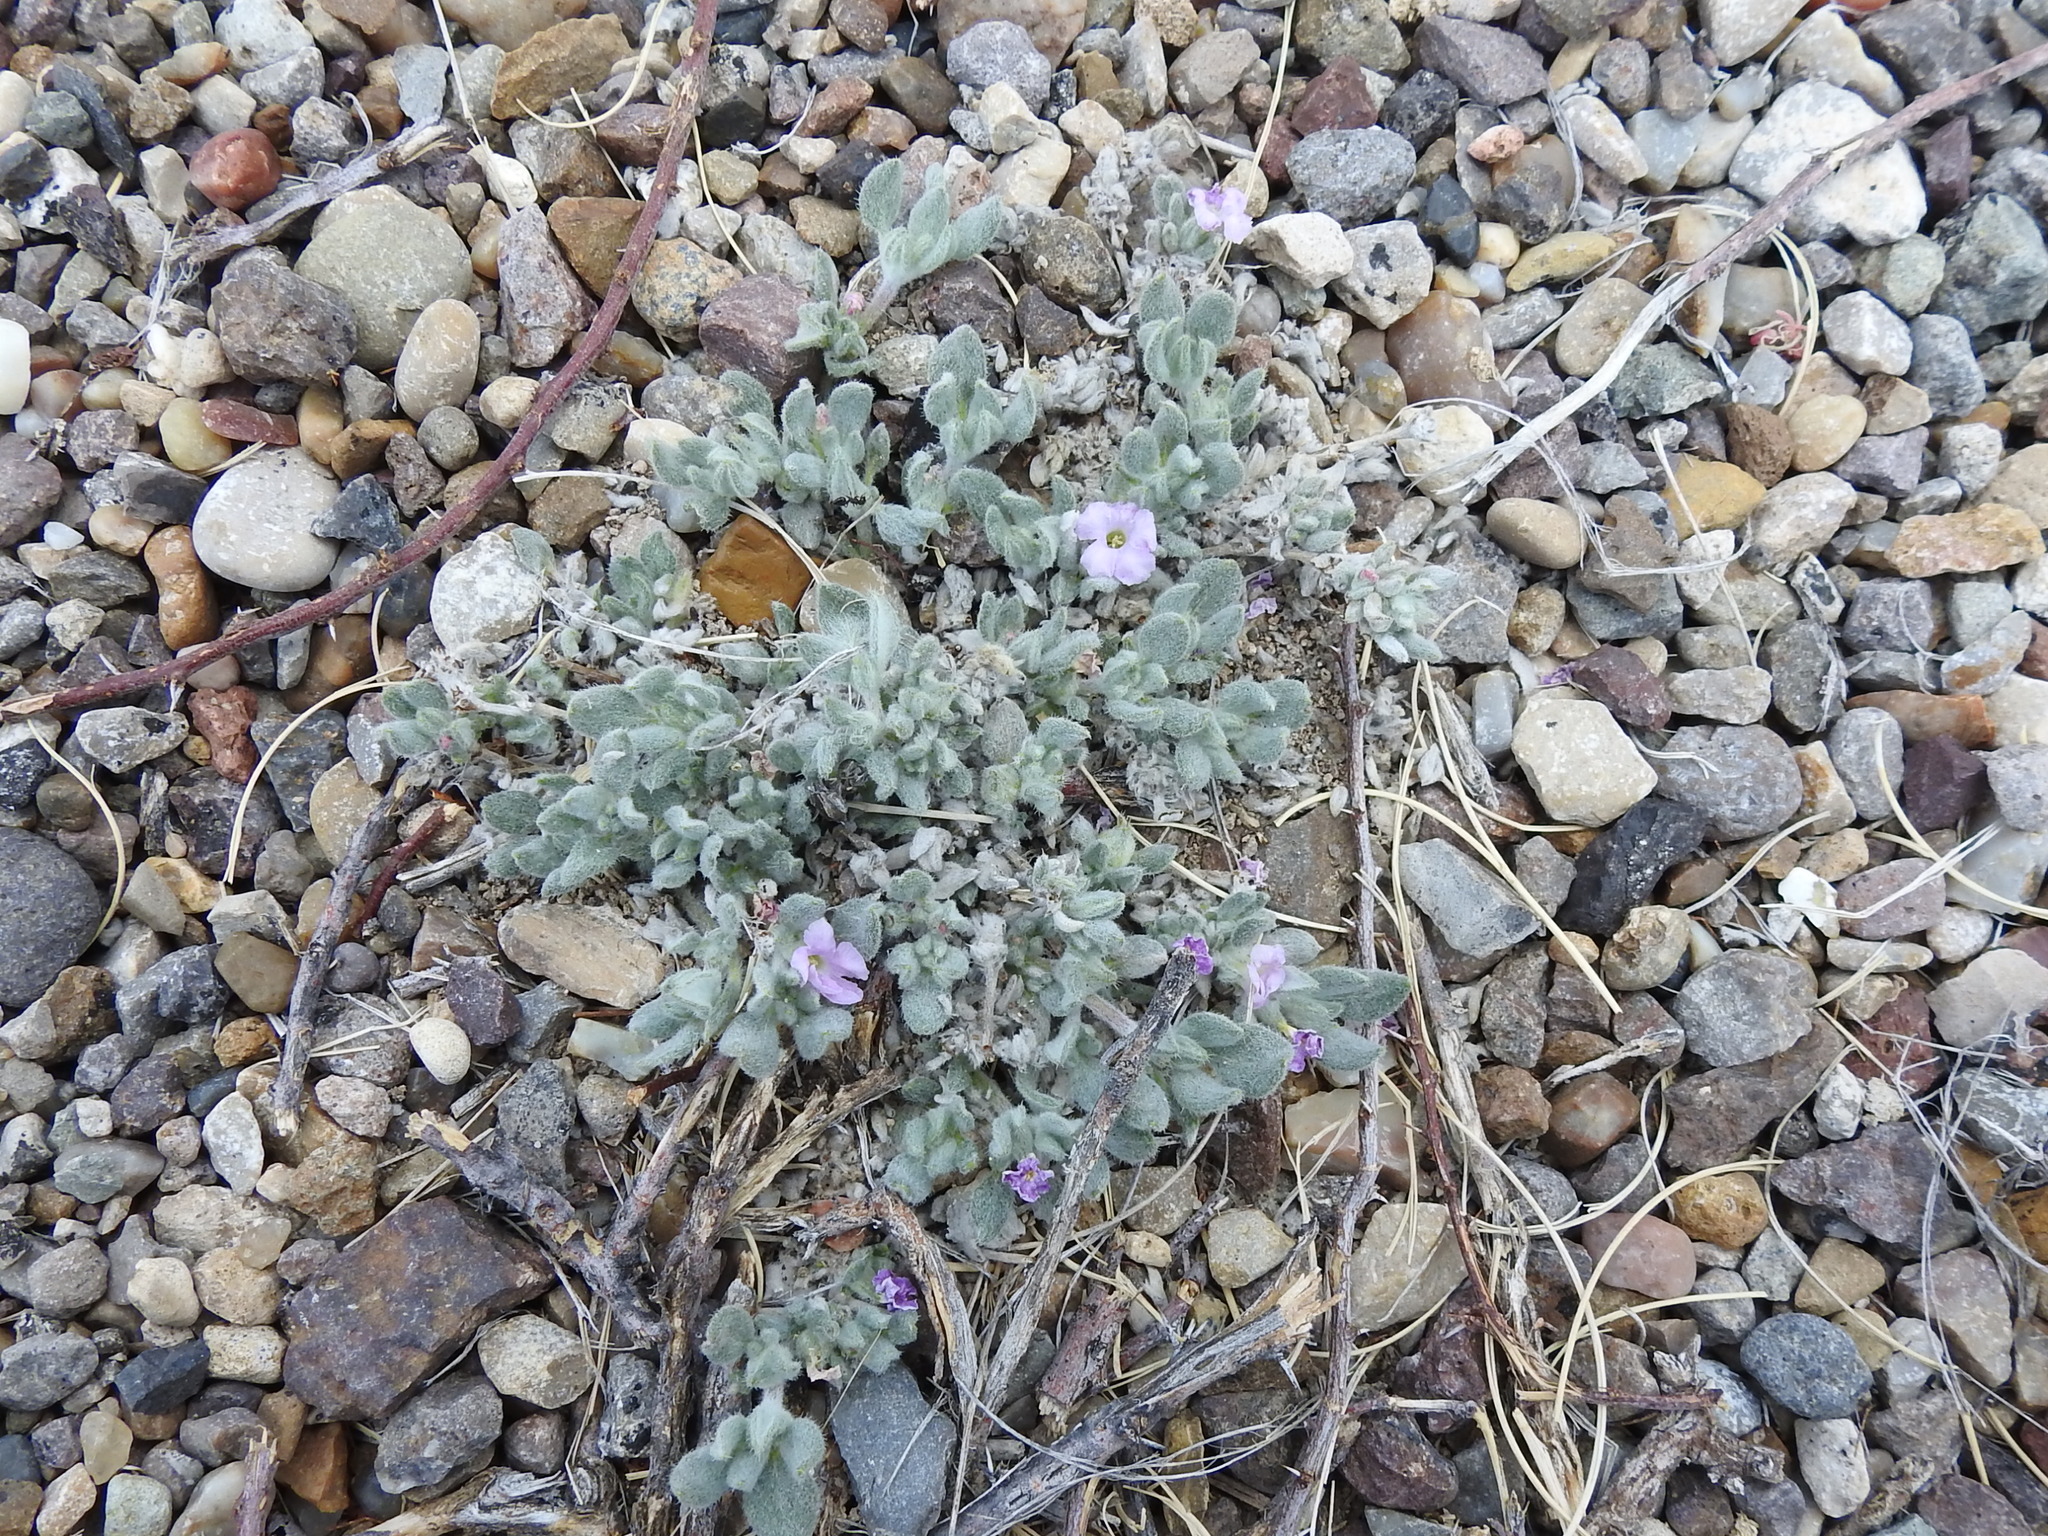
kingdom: Plantae
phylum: Tracheophyta
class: Magnoliopsida
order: Boraginales
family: Ehretiaceae
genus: Tiquilia
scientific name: Tiquilia canescens
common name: Hairy tiquilia
